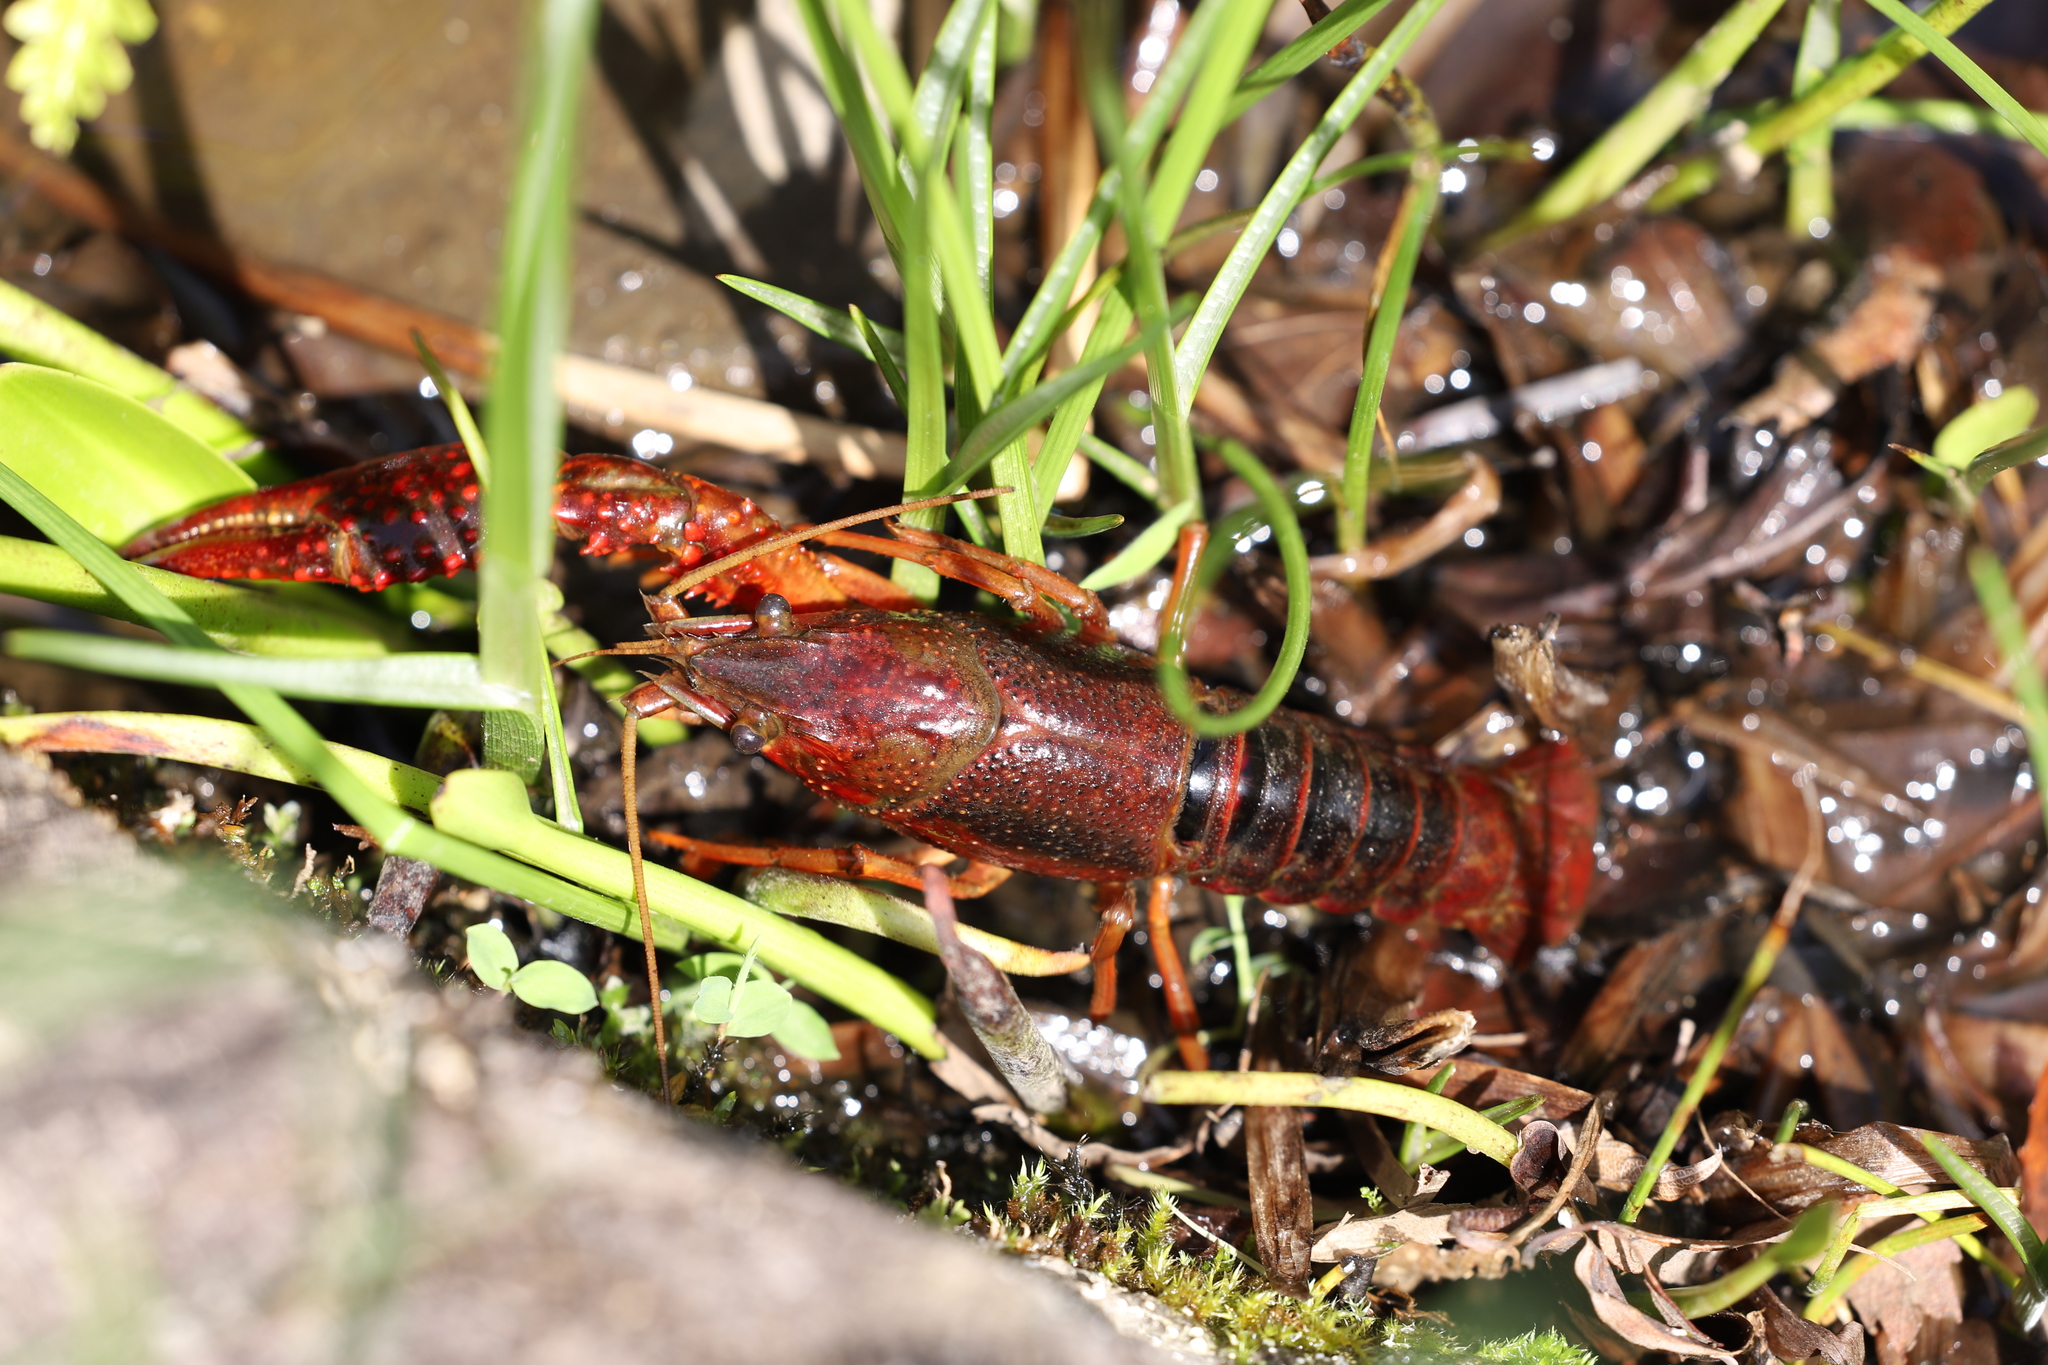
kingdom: Animalia
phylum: Arthropoda
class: Malacostraca
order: Decapoda
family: Cambaridae
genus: Procambarus
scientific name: Procambarus clarkii
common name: Red swamp crayfish
